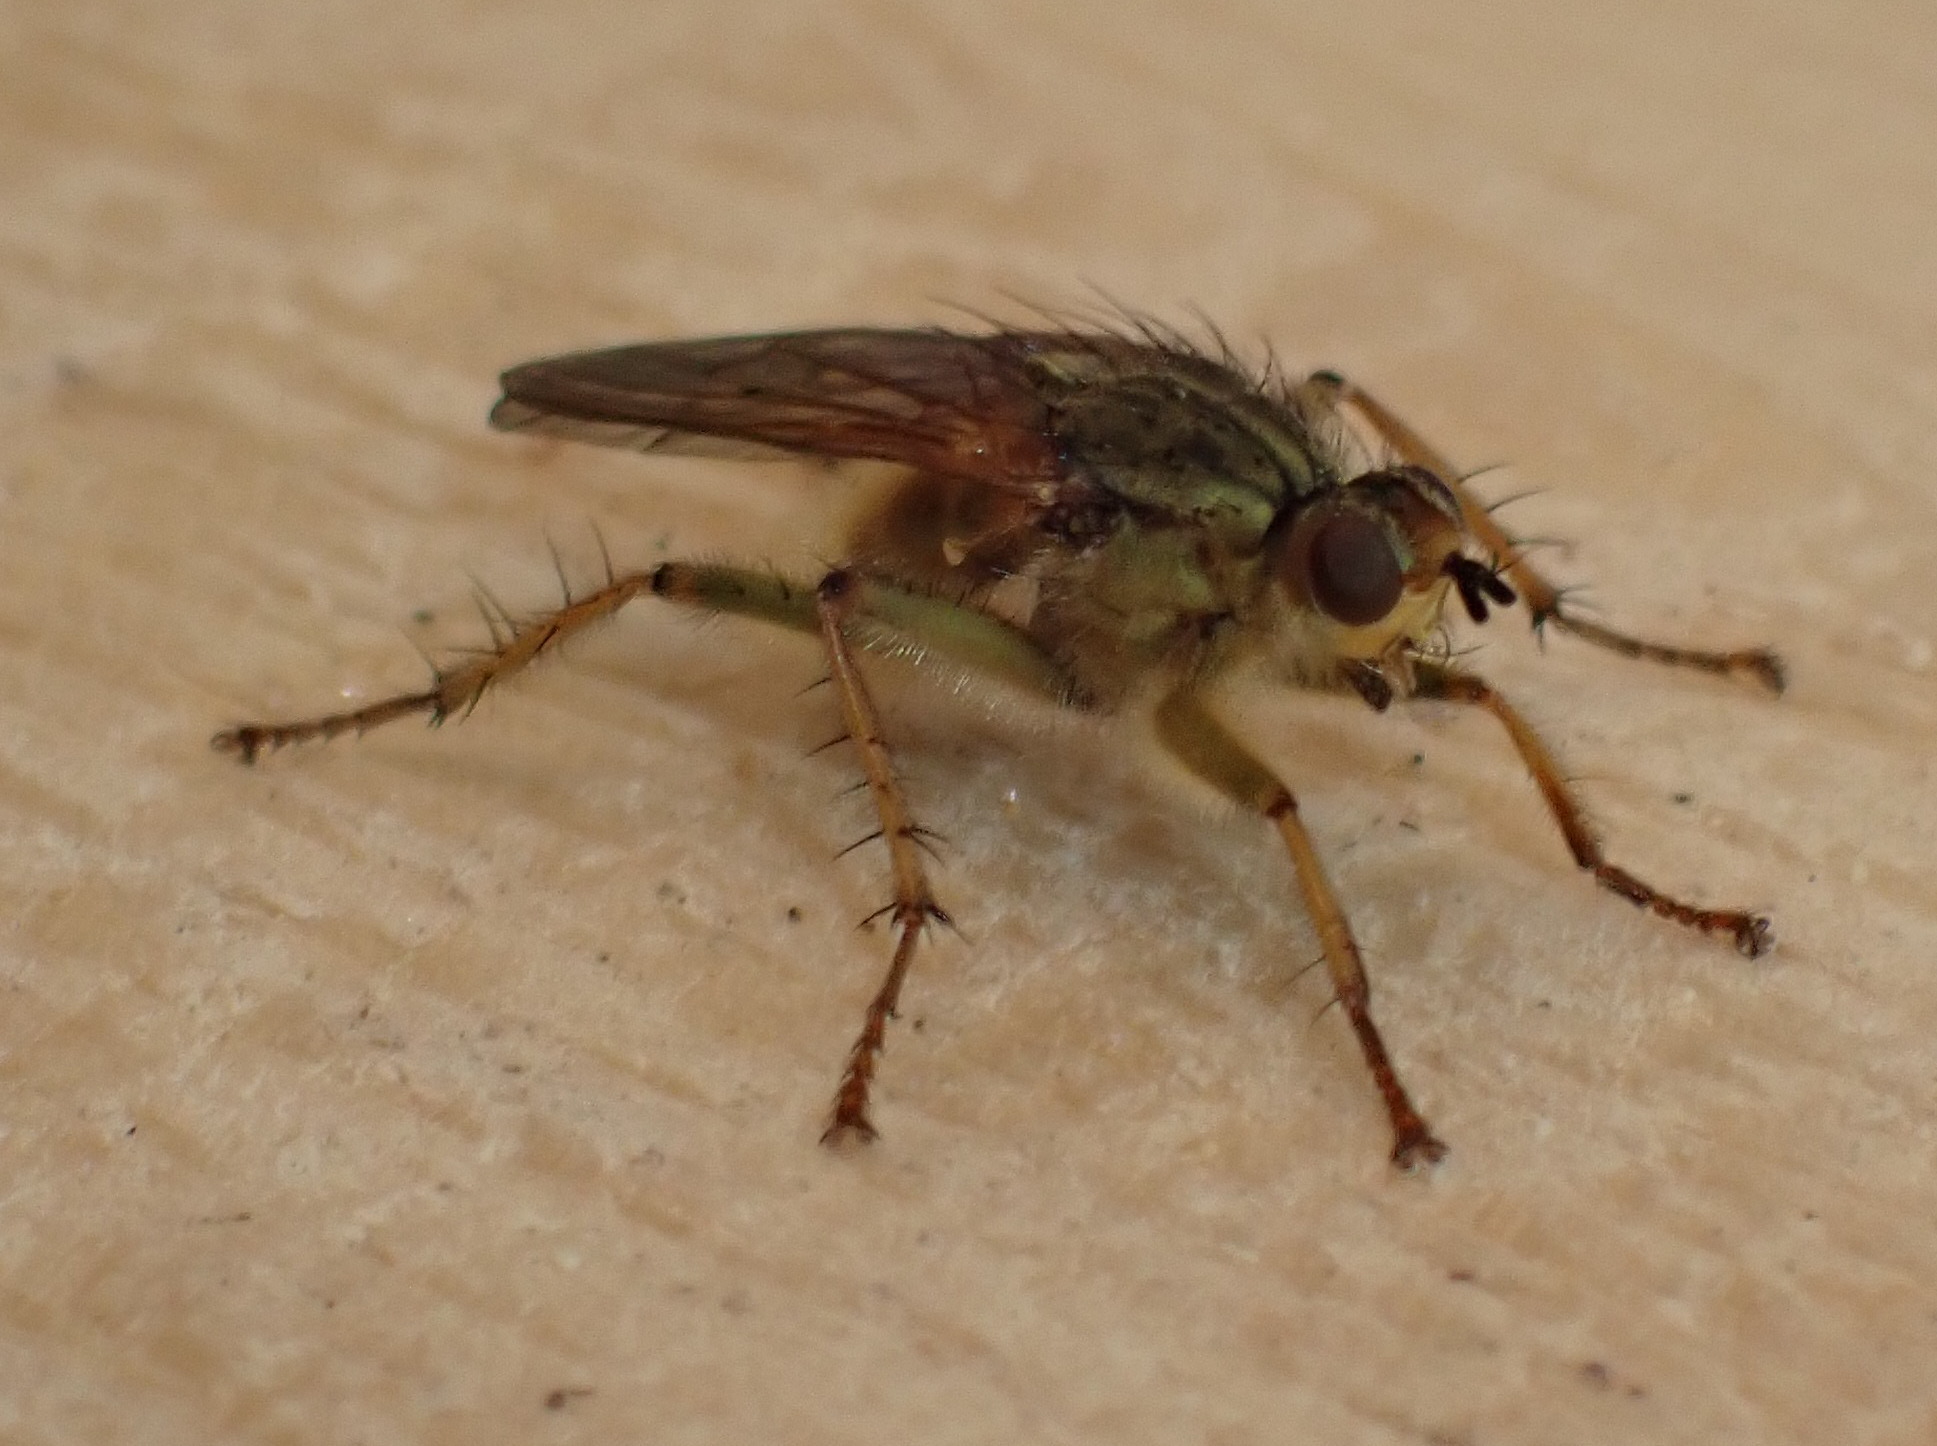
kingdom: Animalia
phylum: Arthropoda
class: Insecta
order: Diptera
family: Scathophagidae
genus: Scathophaga
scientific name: Scathophaga stercoraria
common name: Yellow dung fly
